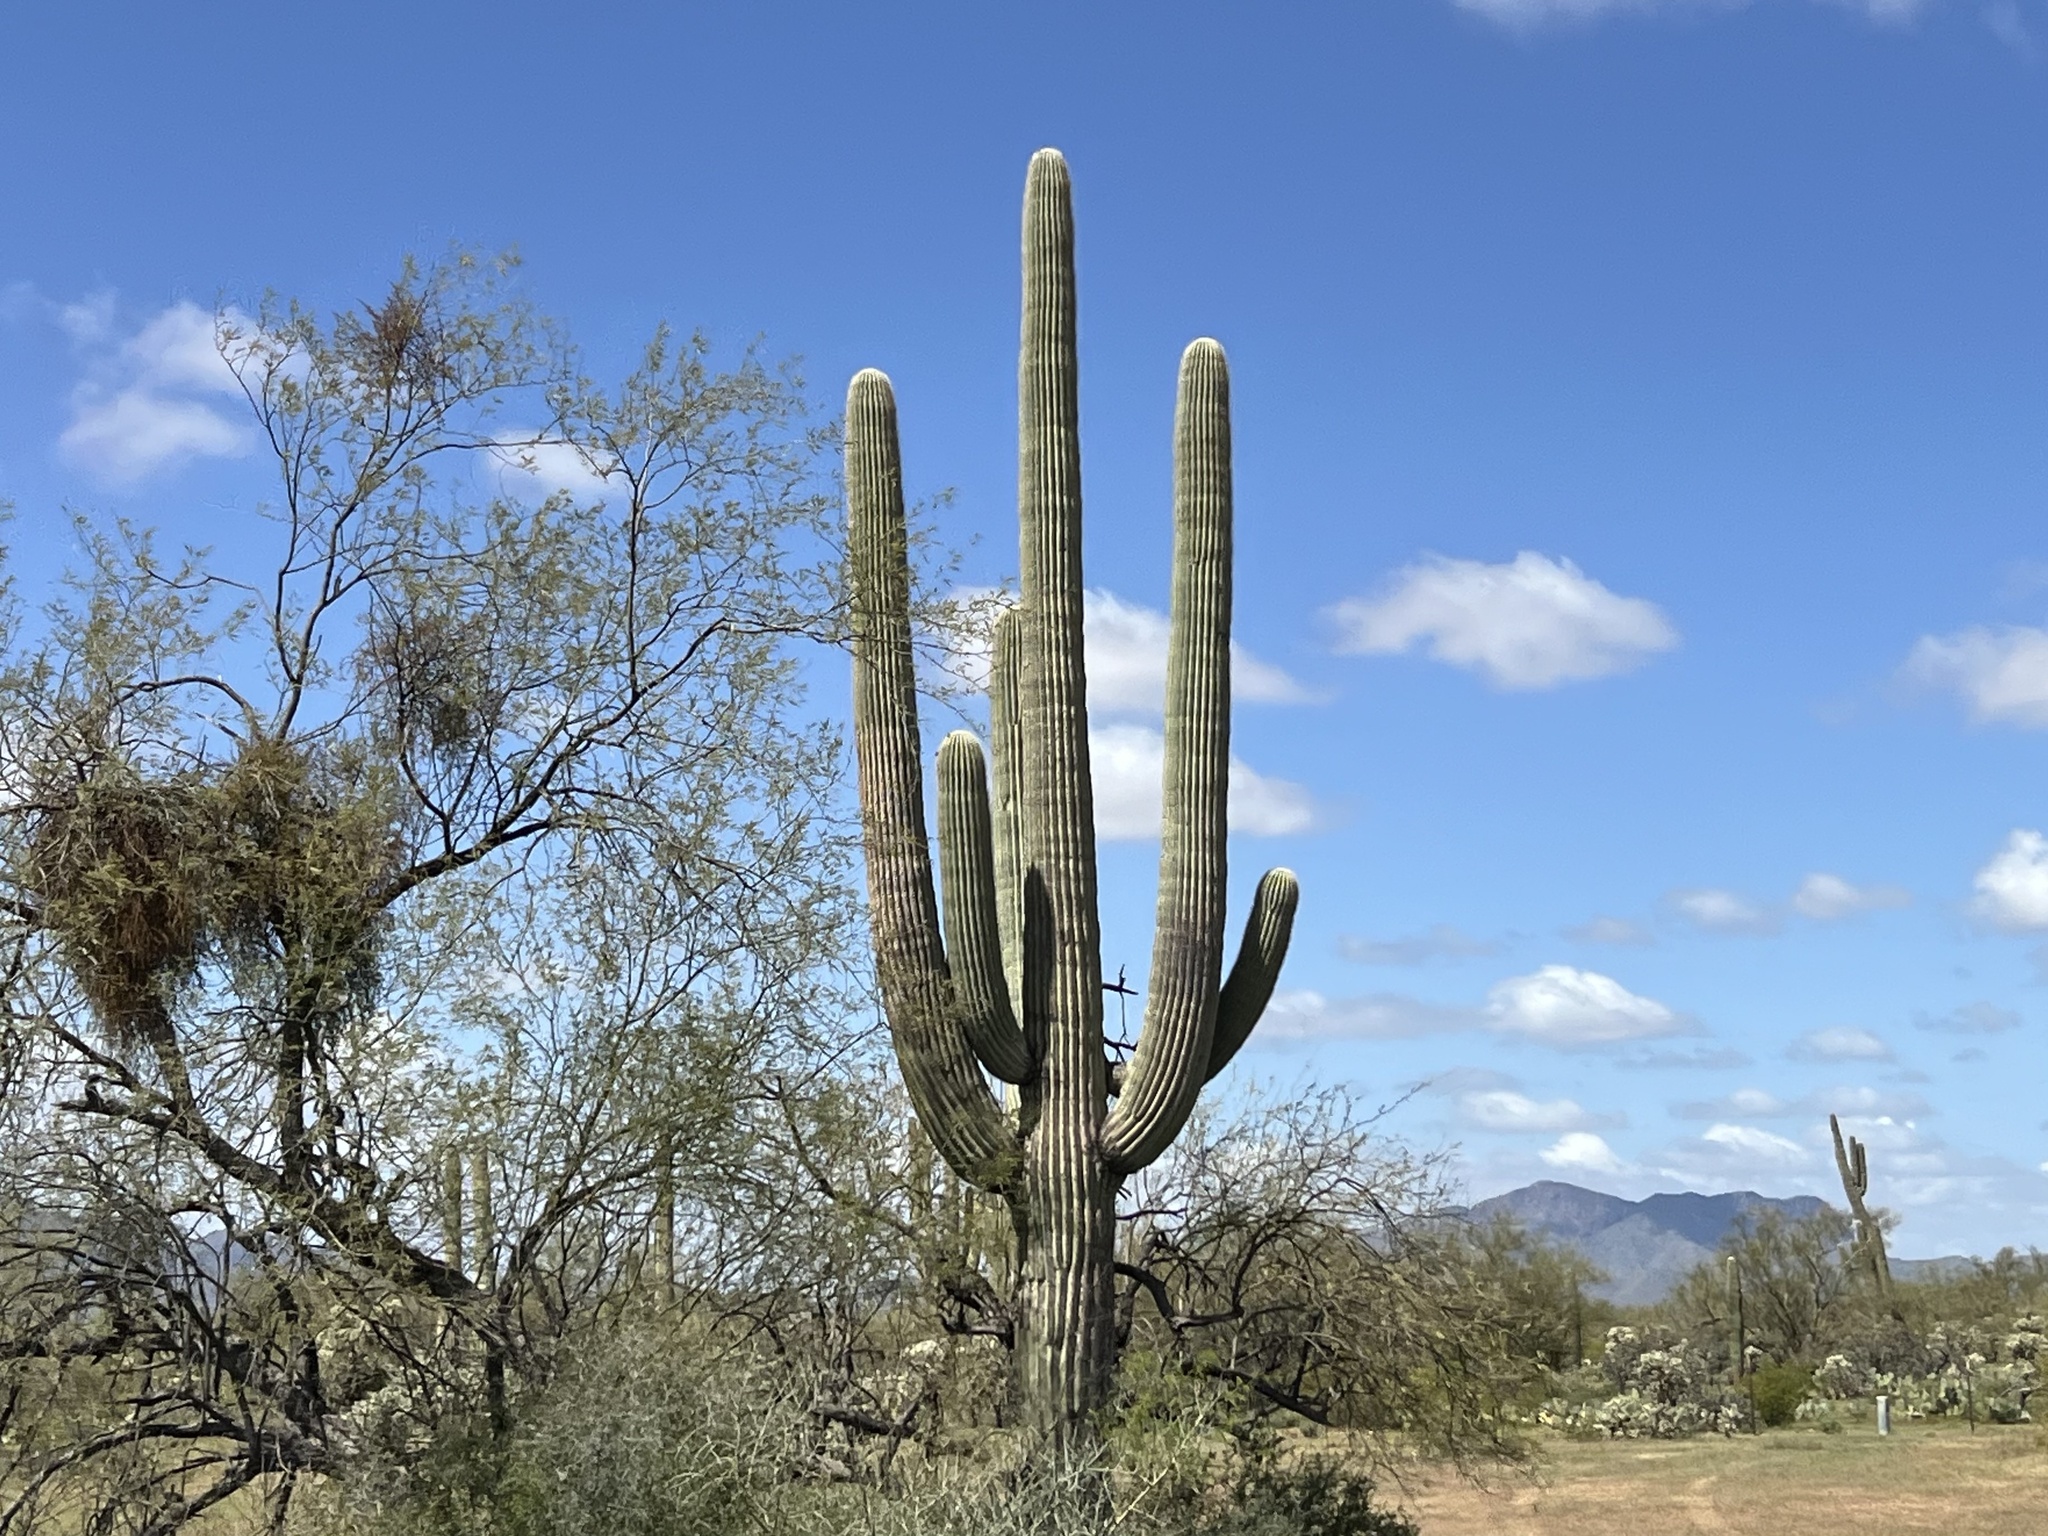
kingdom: Plantae
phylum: Tracheophyta
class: Magnoliopsida
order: Caryophyllales
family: Cactaceae
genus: Carnegiea
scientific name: Carnegiea gigantea
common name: Saguaro
